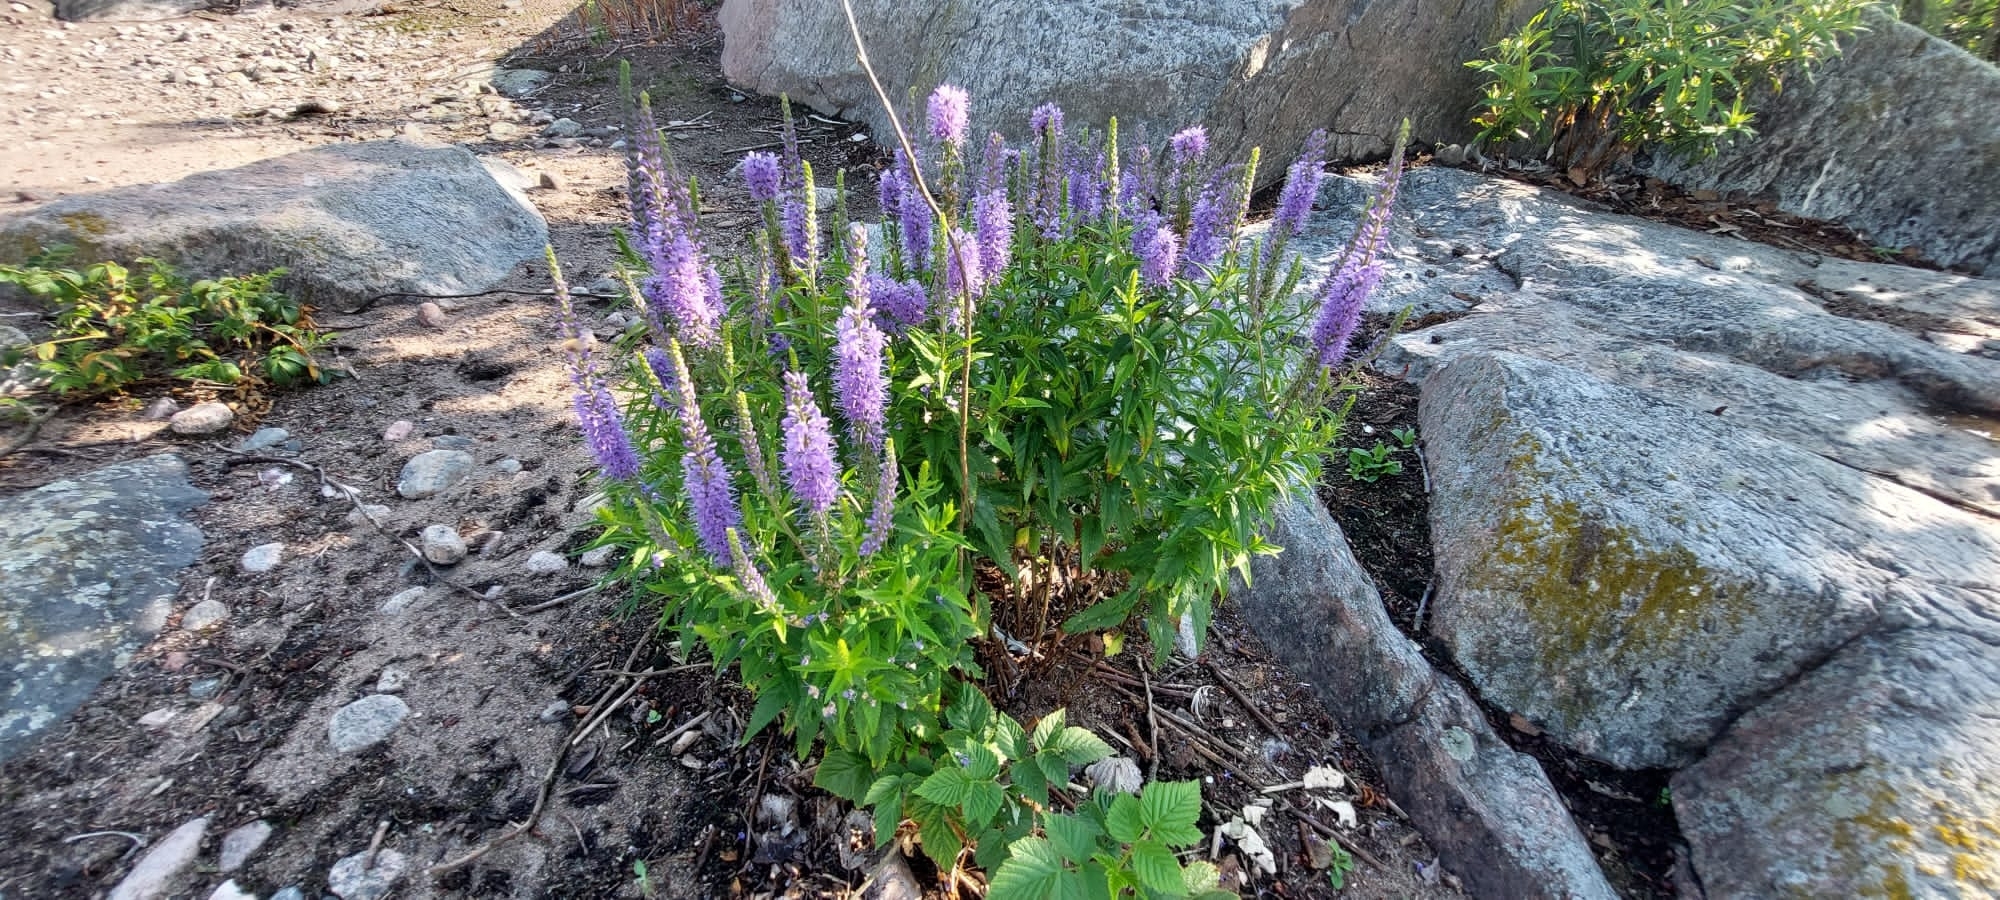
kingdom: Plantae
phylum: Tracheophyta
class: Magnoliopsida
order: Lamiales
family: Plantaginaceae
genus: Veronica
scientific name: Veronica longifolia
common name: Garden speedwell
